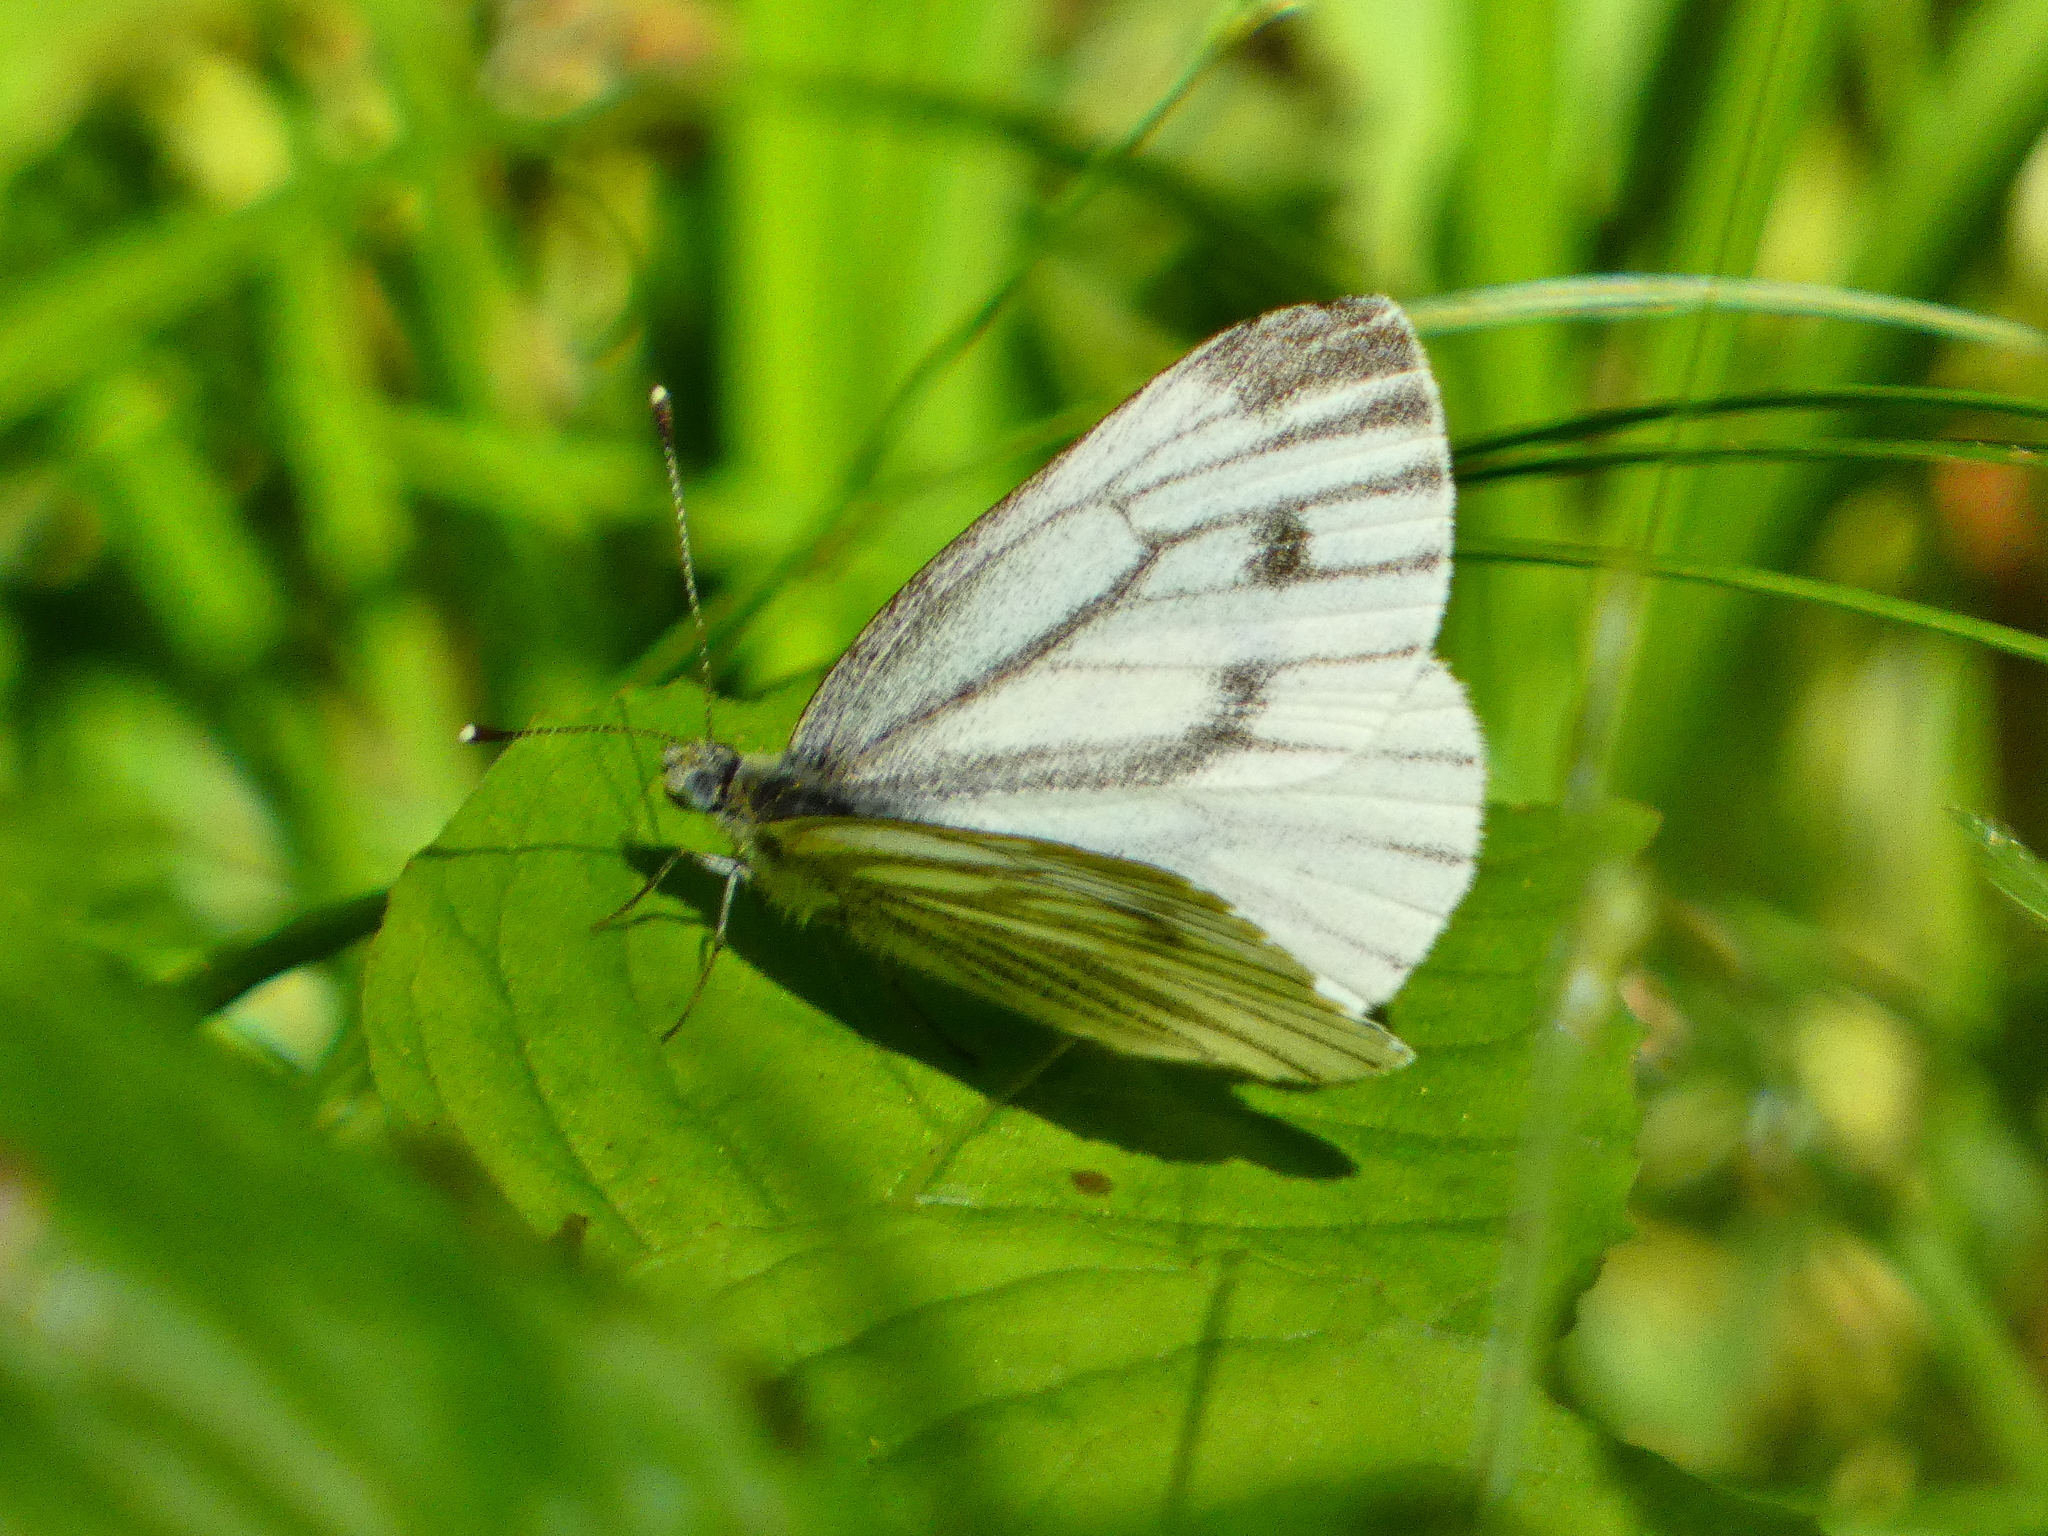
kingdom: Animalia
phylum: Arthropoda
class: Insecta
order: Lepidoptera
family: Pieridae
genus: Pieris
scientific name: Pieris napi
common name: Green-veined white
